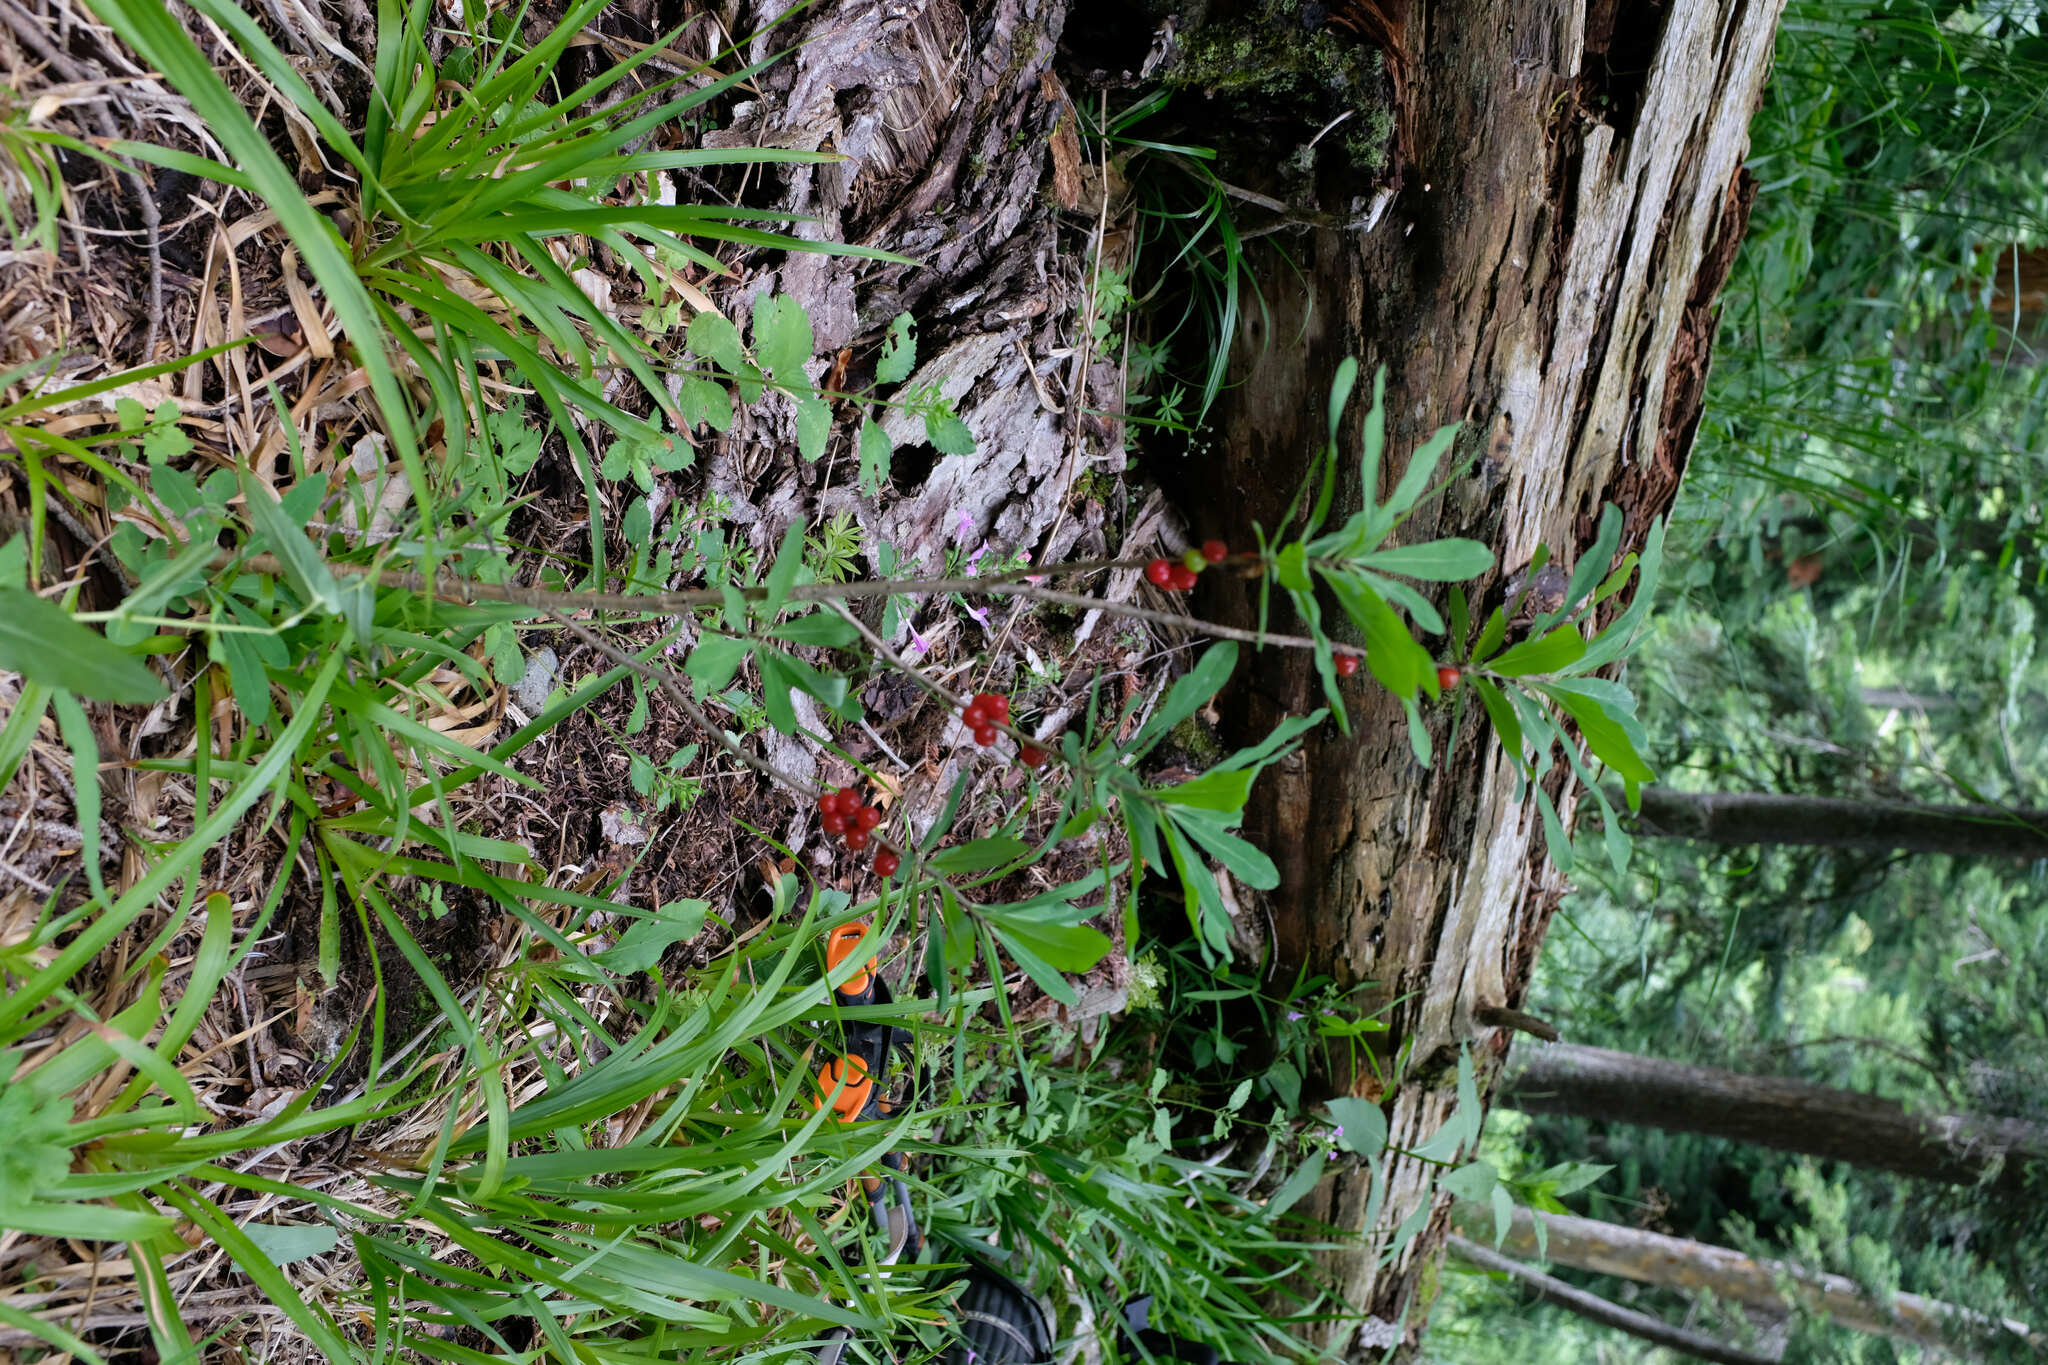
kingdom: Plantae
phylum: Tracheophyta
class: Magnoliopsida
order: Malvales
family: Thymelaeaceae
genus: Daphne
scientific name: Daphne mezereum
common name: Mezereon
